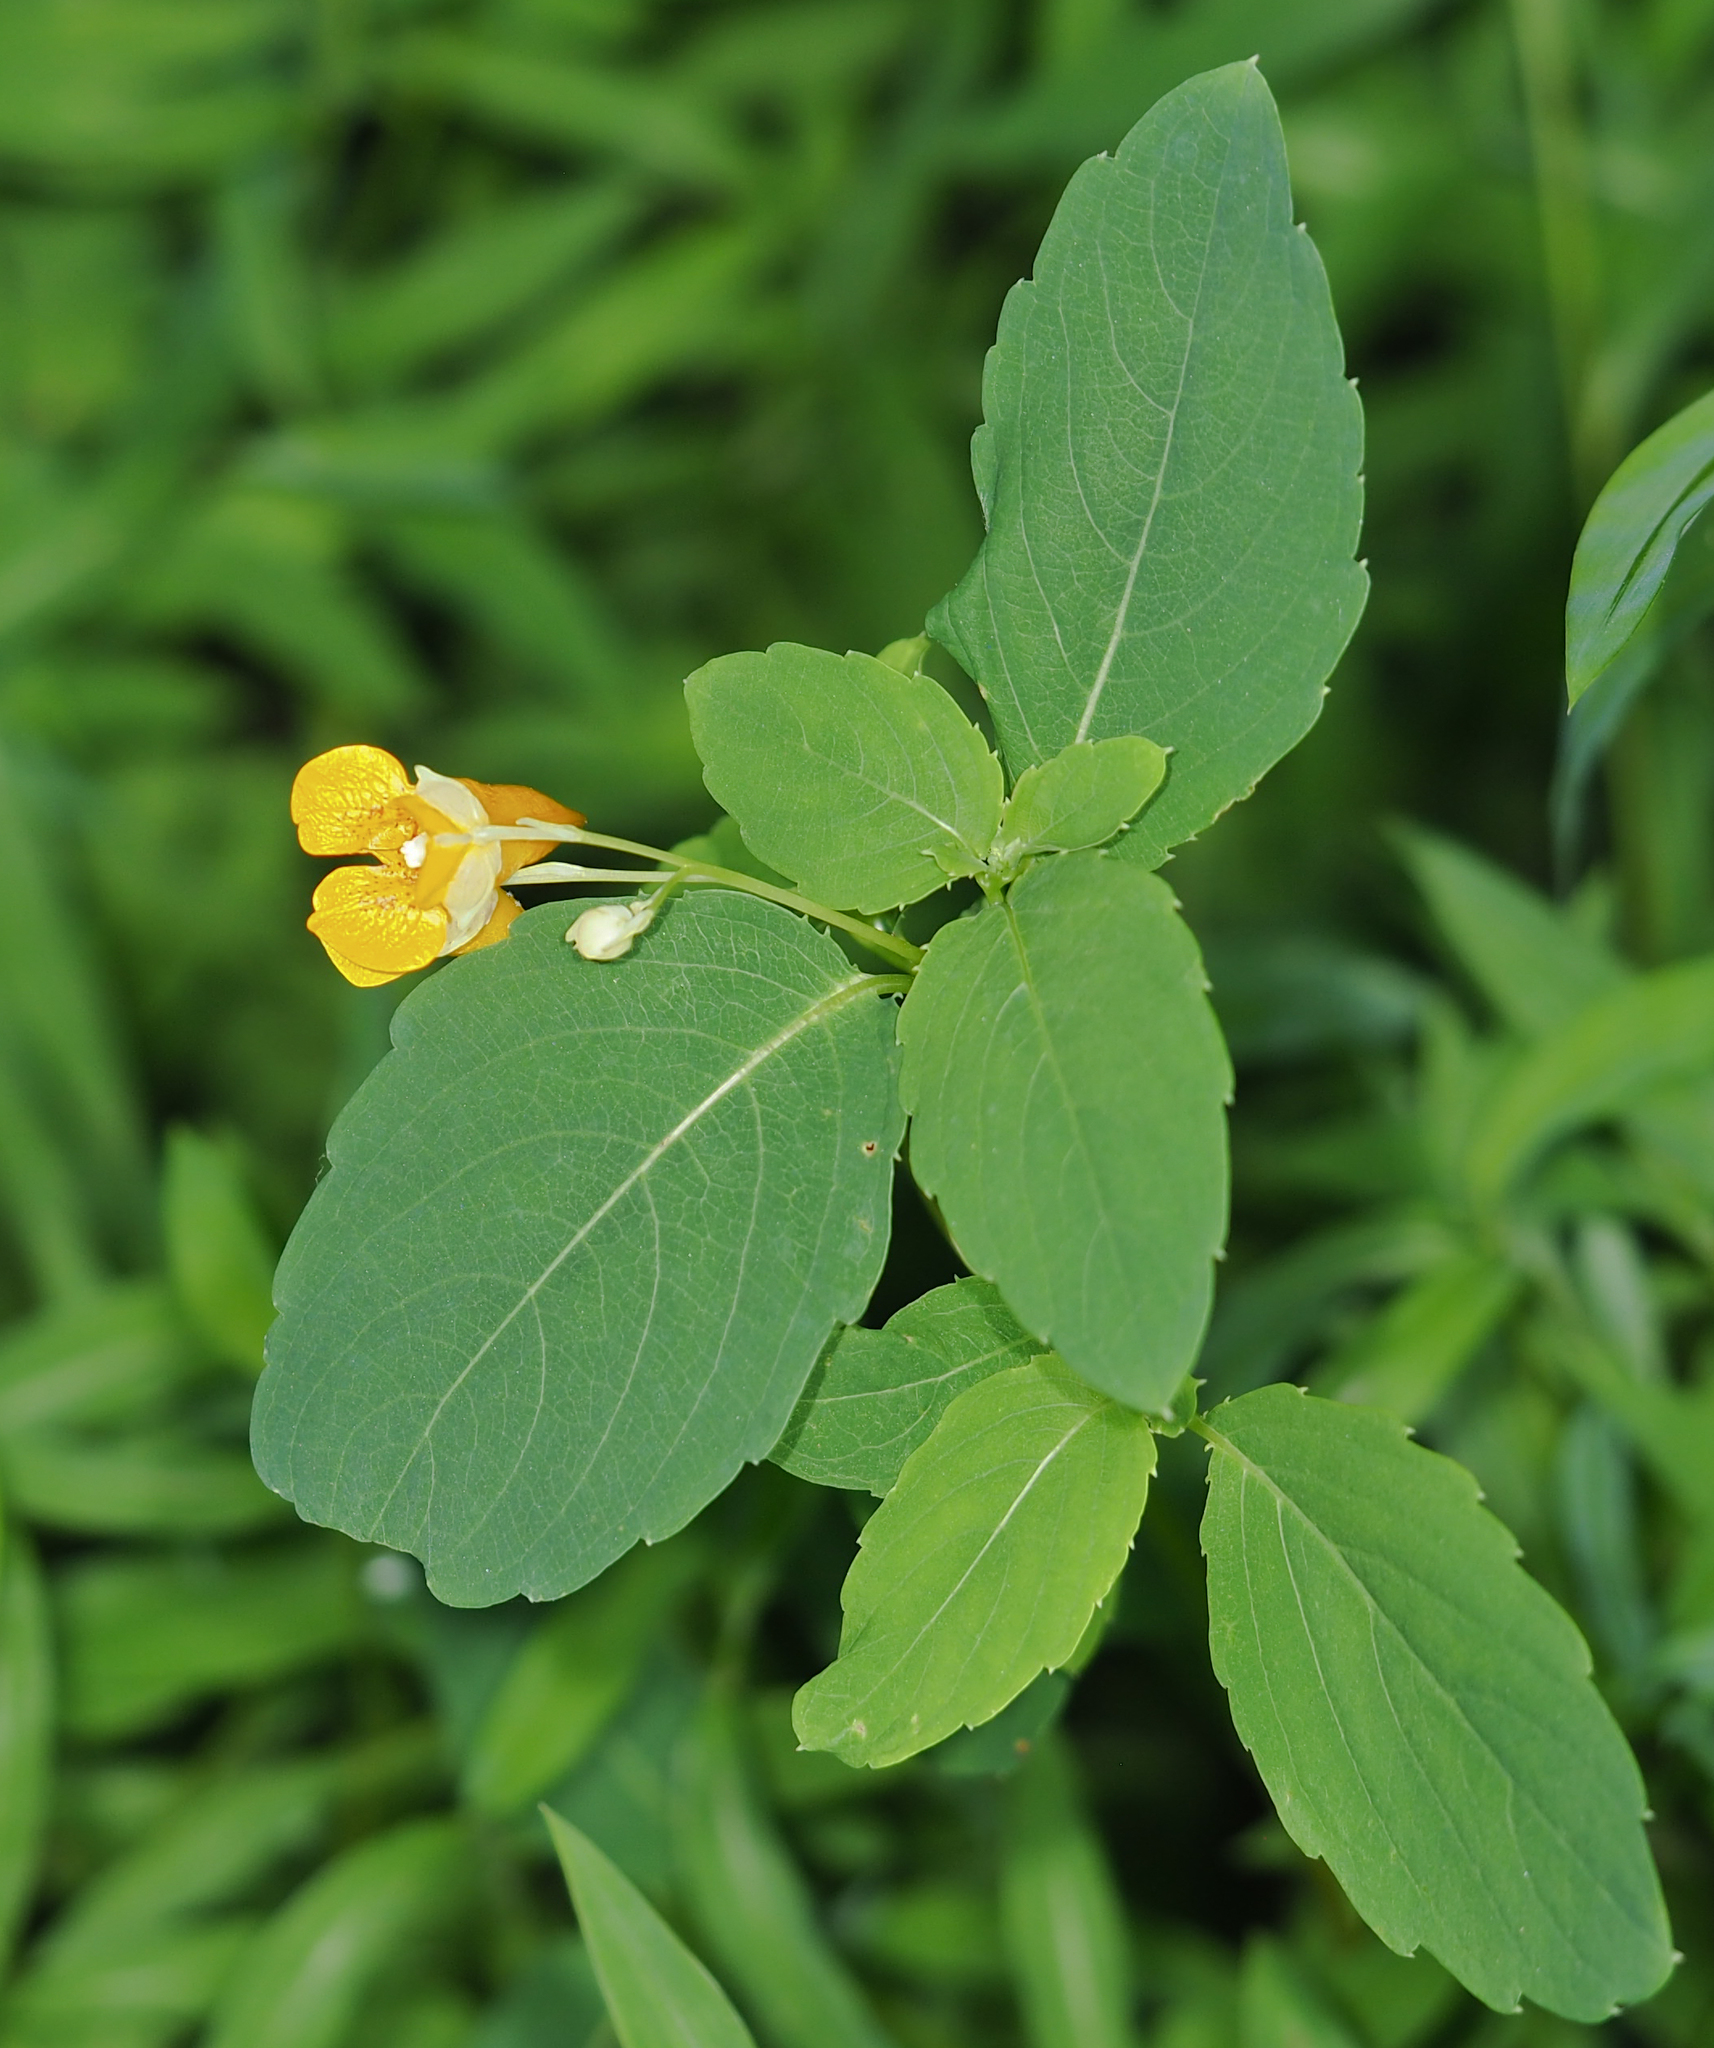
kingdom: Plantae
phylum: Tracheophyta
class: Magnoliopsida
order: Ericales
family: Balsaminaceae
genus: Impatiens
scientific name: Impatiens capensis
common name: Orange balsam
